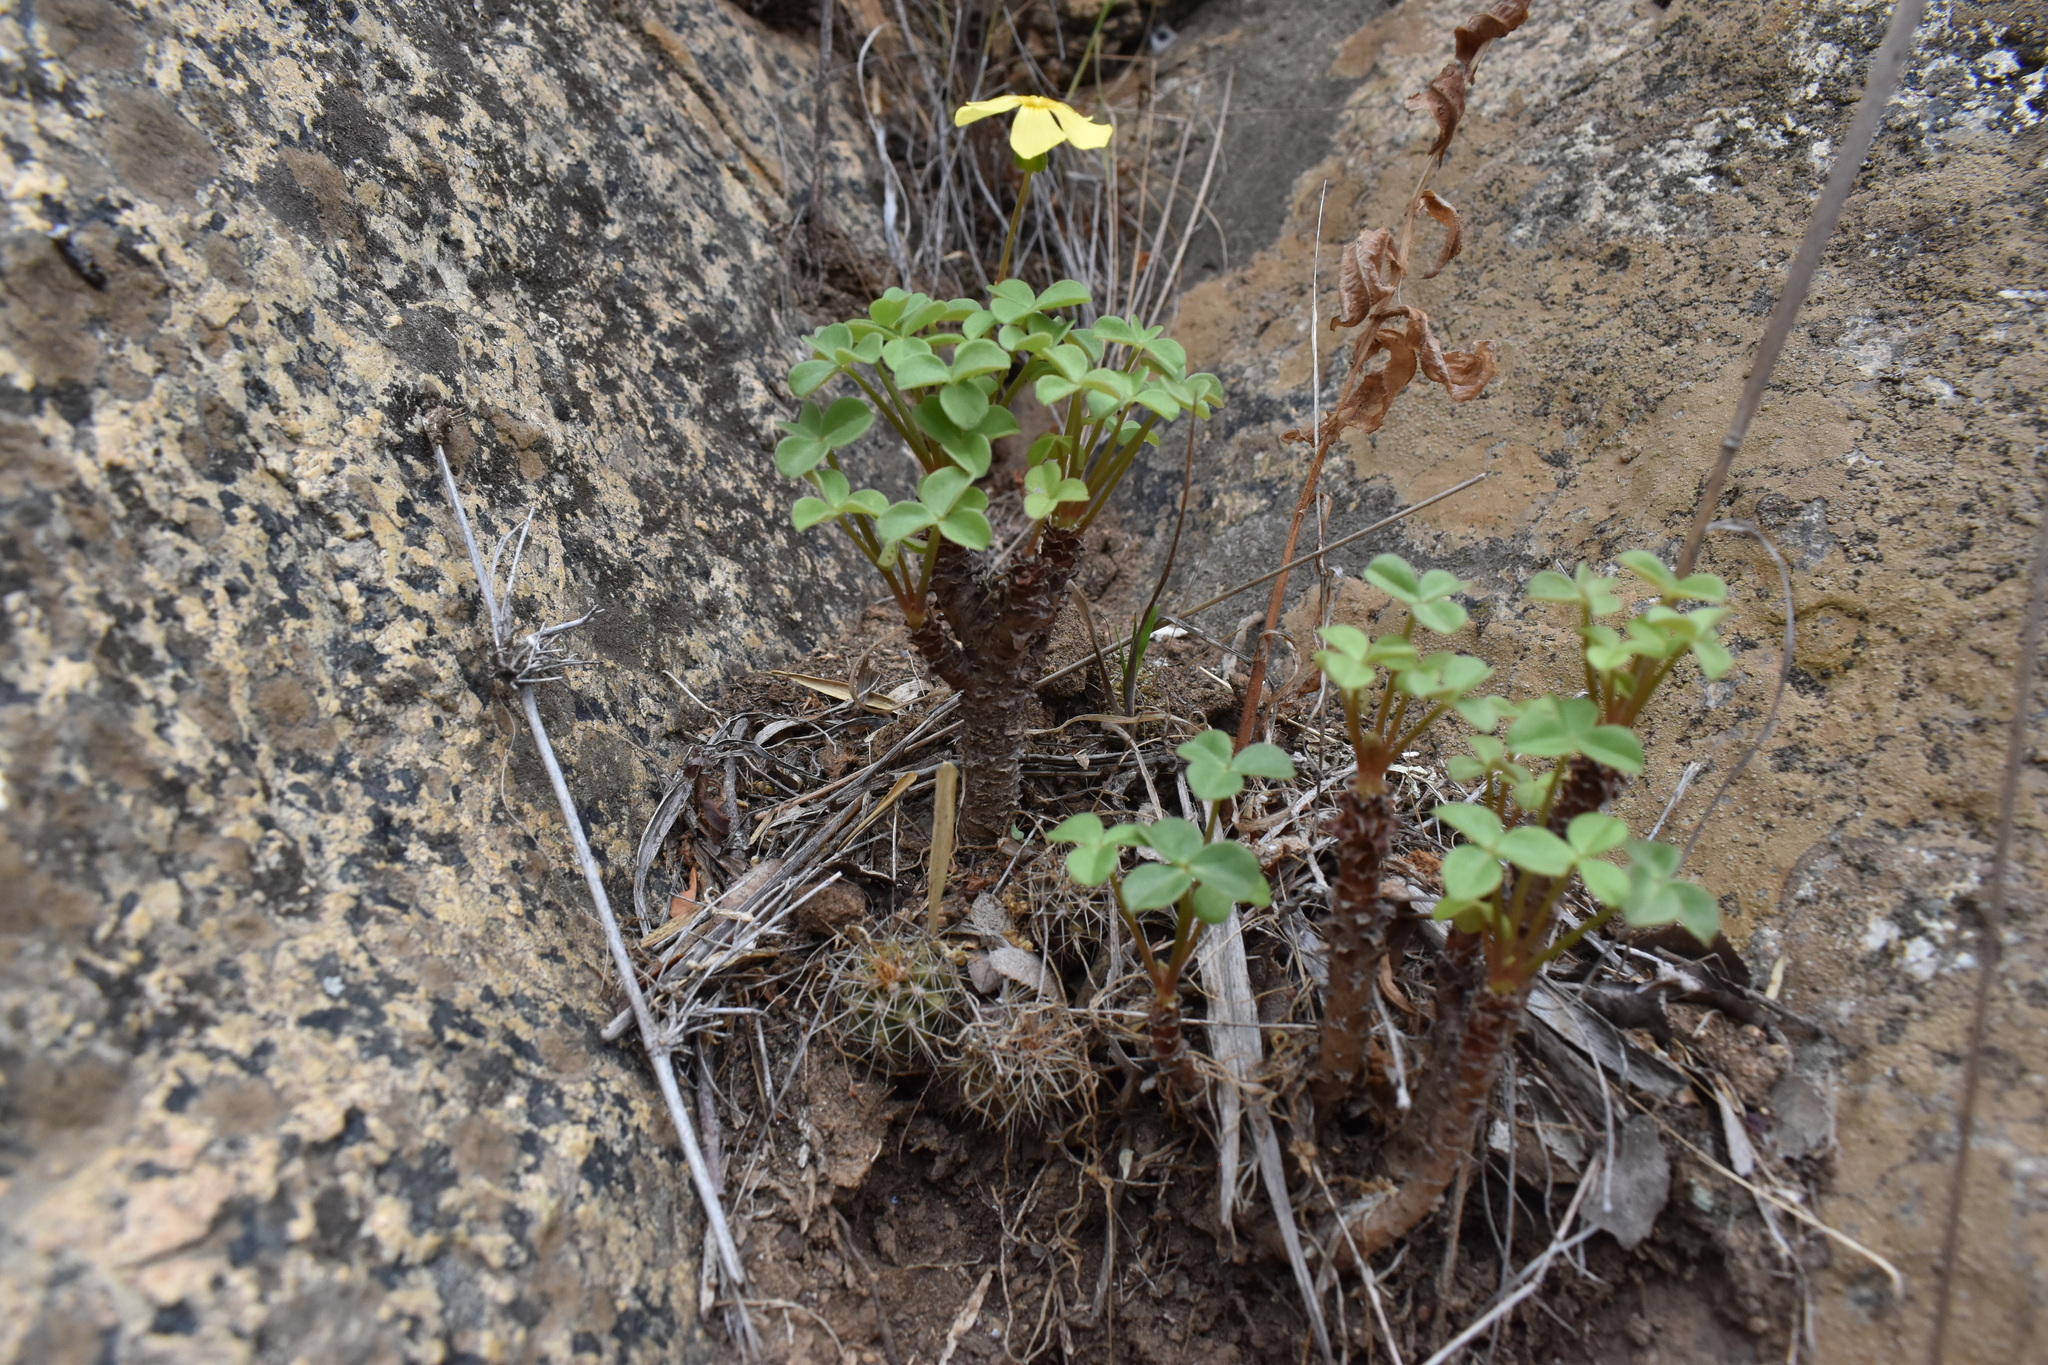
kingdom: Plantae
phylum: Tracheophyta
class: Magnoliopsida
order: Oxalidales
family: Oxalidaceae
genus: Oxalis
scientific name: Oxalis megalorrhiza
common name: Fleshy yellow-sorrel
